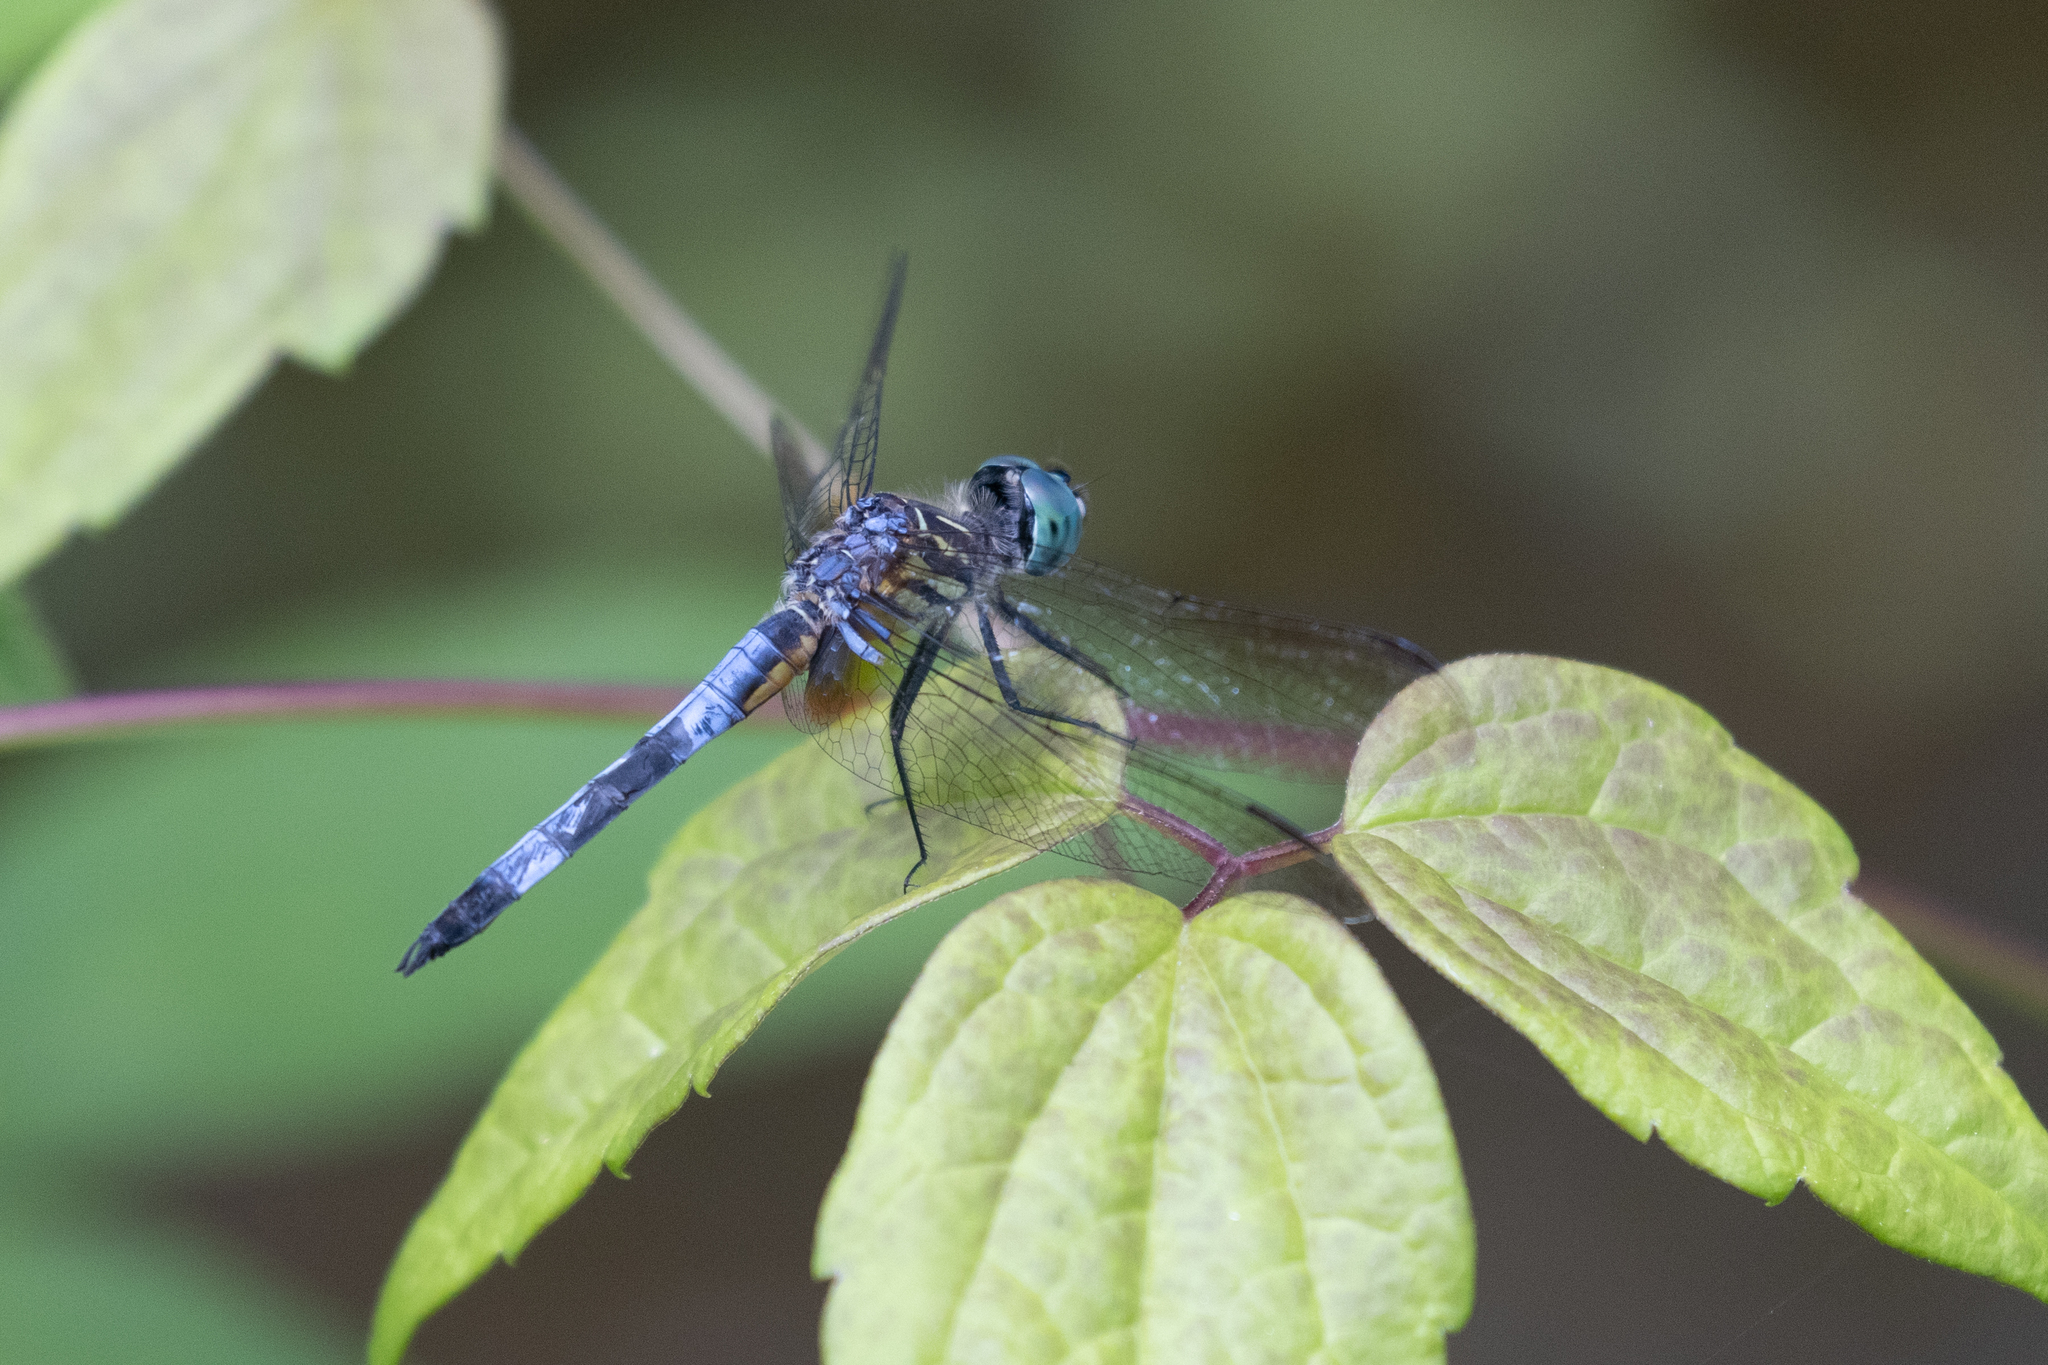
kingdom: Animalia
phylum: Arthropoda
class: Insecta
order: Odonata
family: Libellulidae
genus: Pachydiplax
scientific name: Pachydiplax longipennis
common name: Blue dasher
